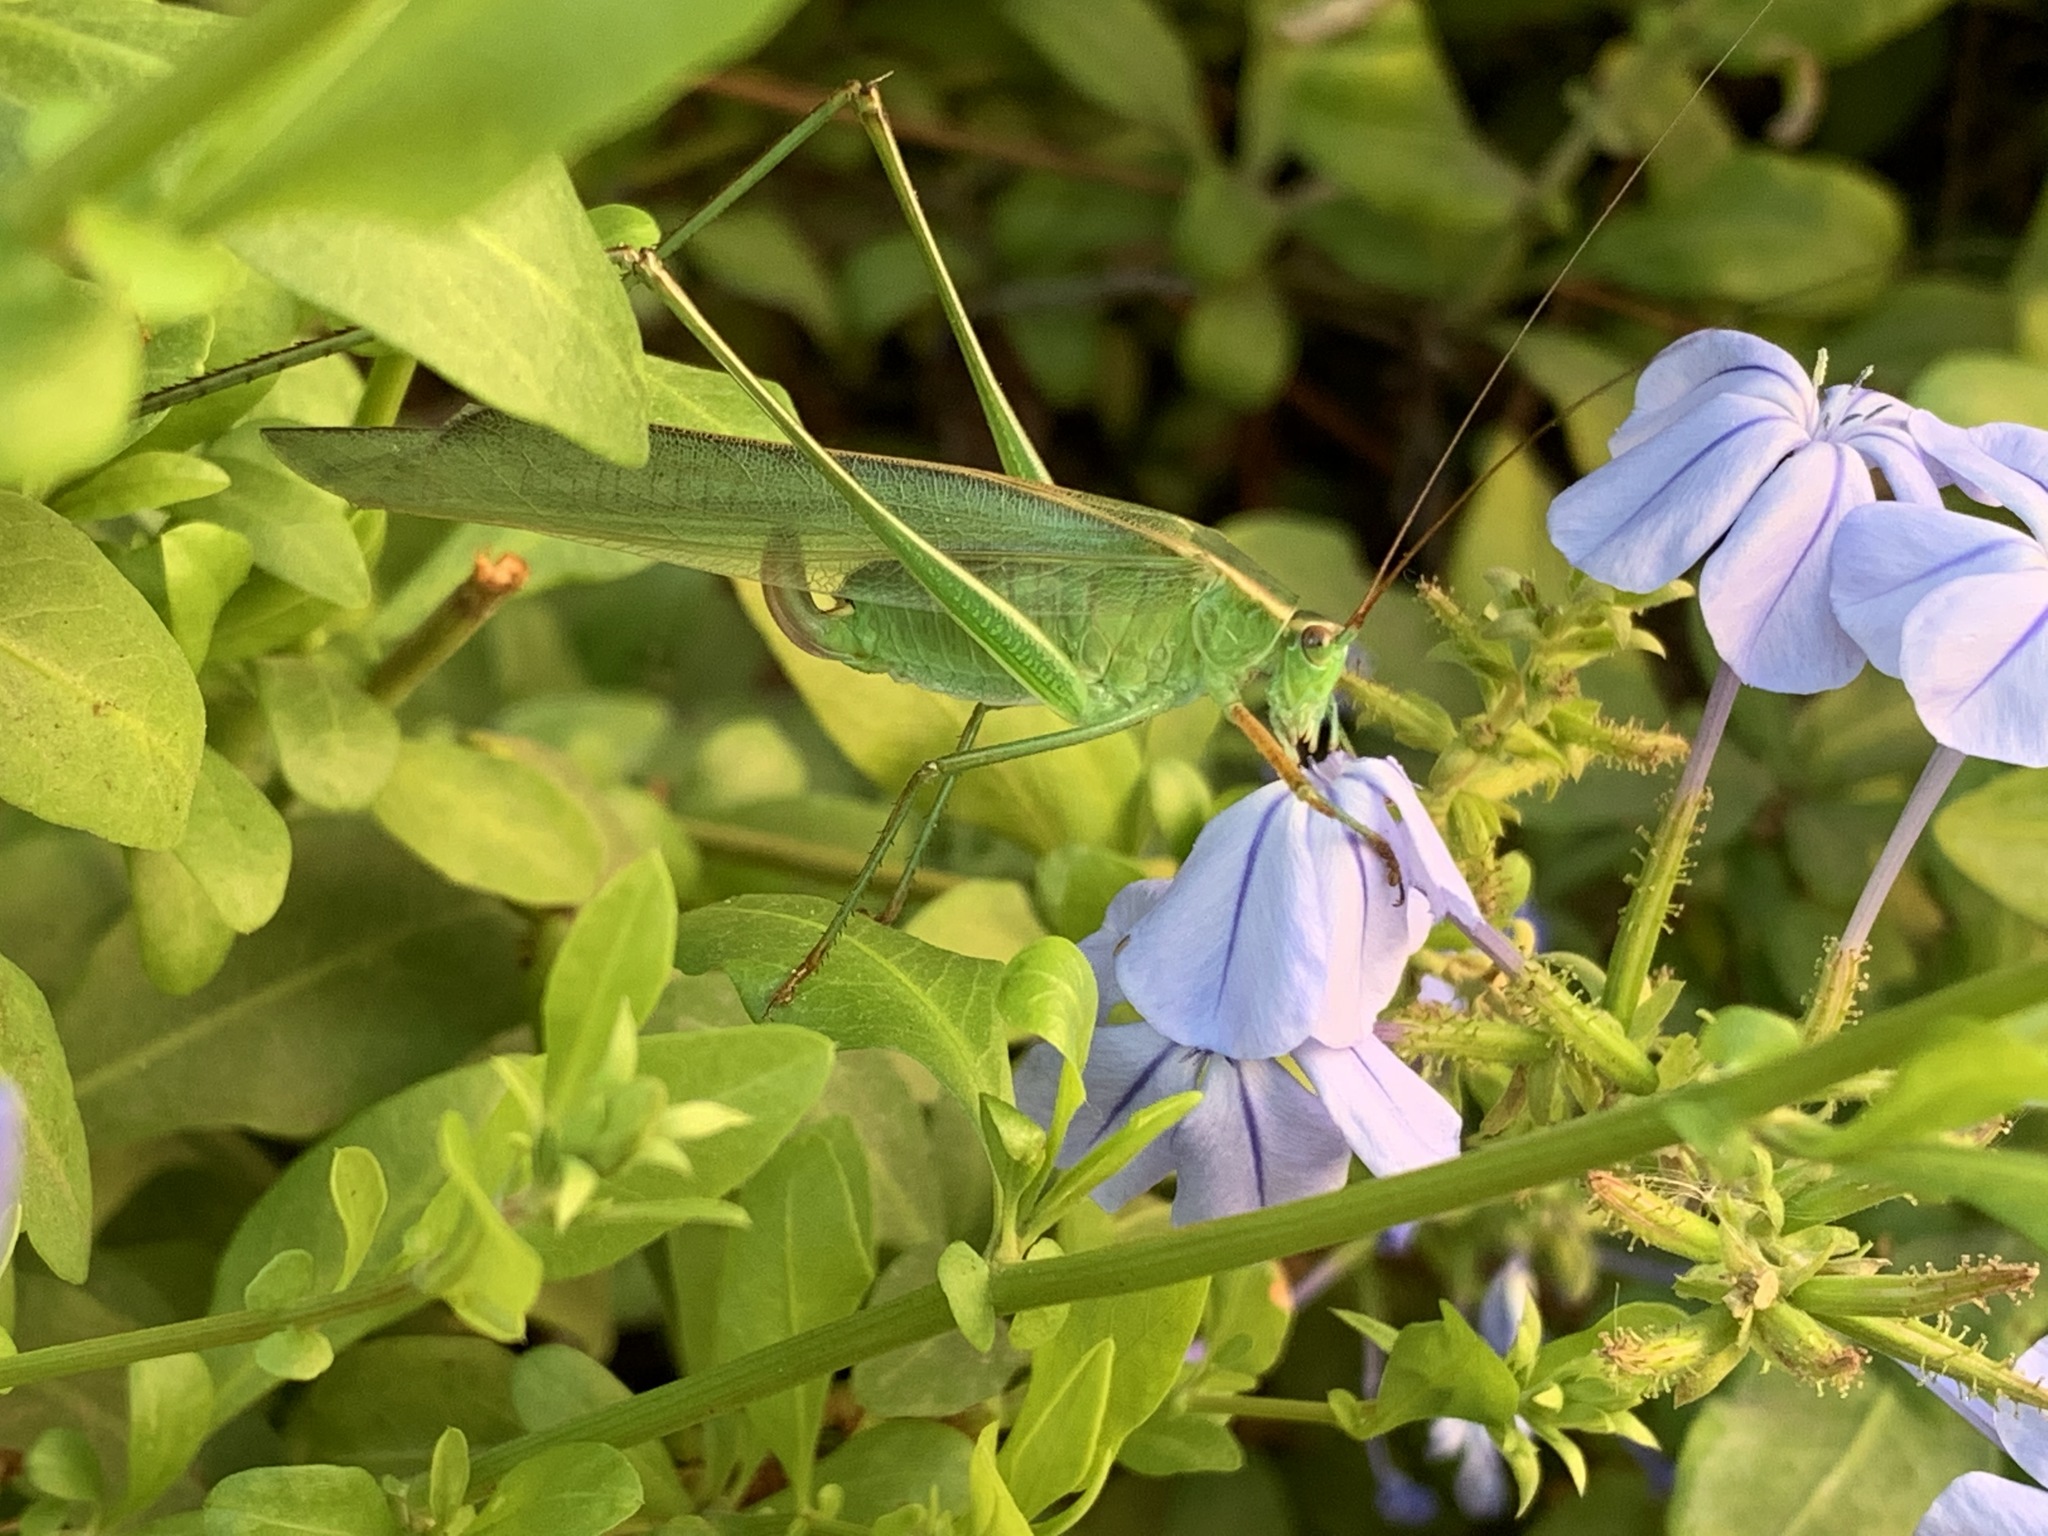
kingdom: Animalia
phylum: Arthropoda
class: Insecta
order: Orthoptera
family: Tettigoniidae
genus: Scudderia
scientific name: Scudderia
